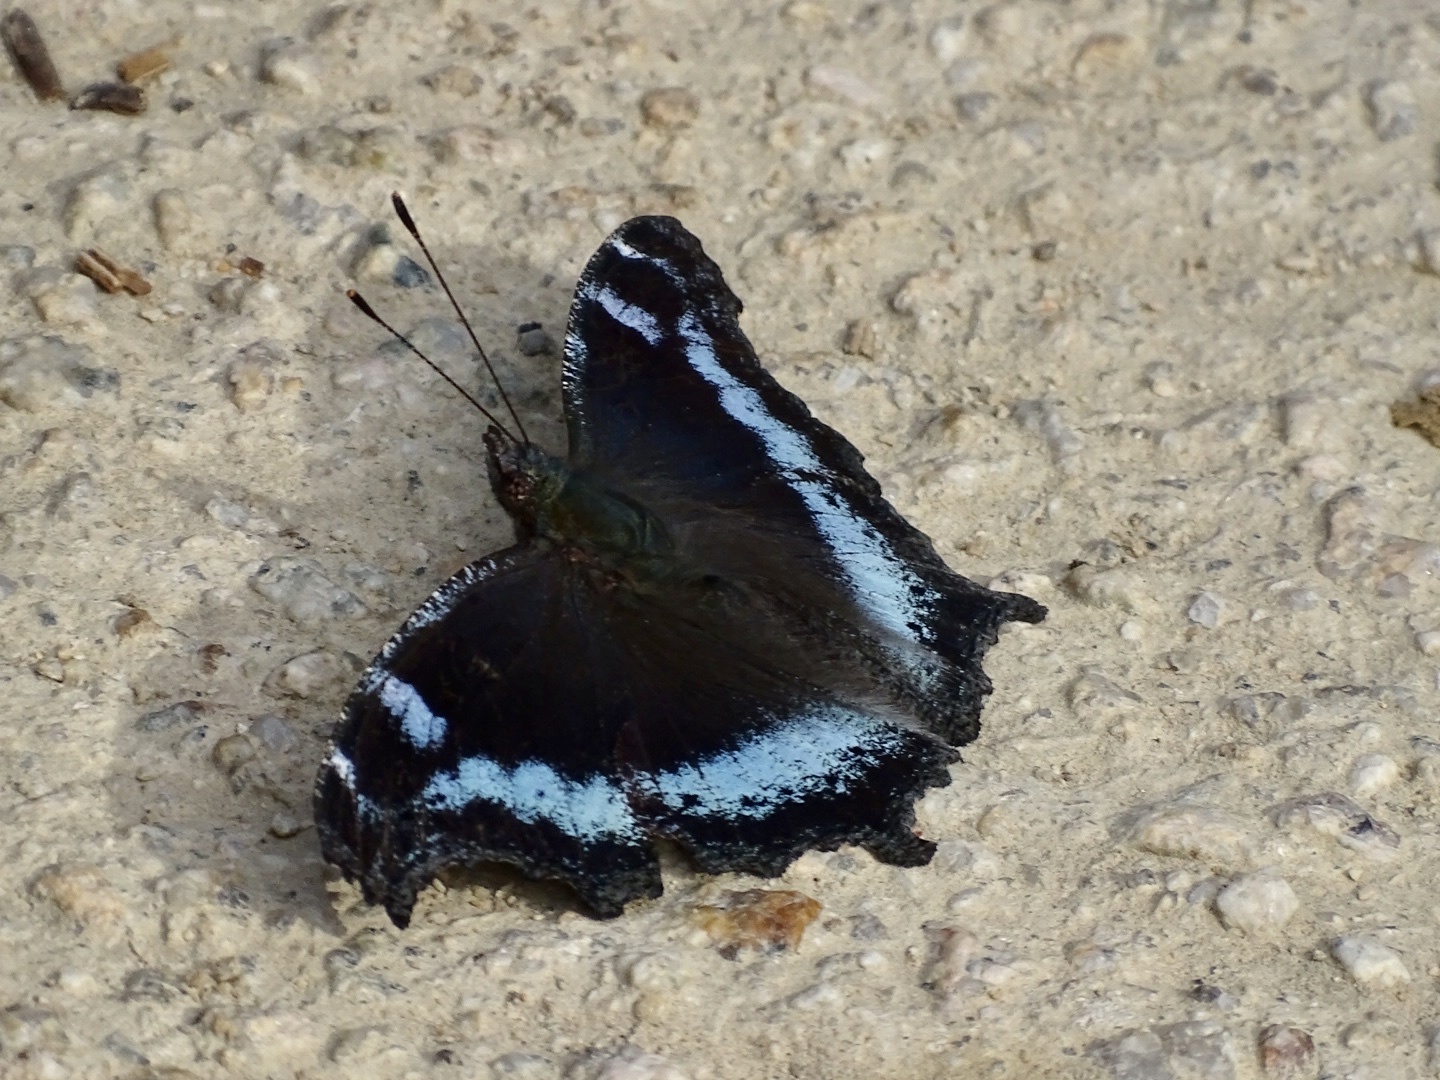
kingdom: Animalia
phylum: Arthropoda
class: Insecta
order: Lepidoptera
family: Nymphalidae
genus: Vanessa
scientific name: Vanessa Kaniska canace
